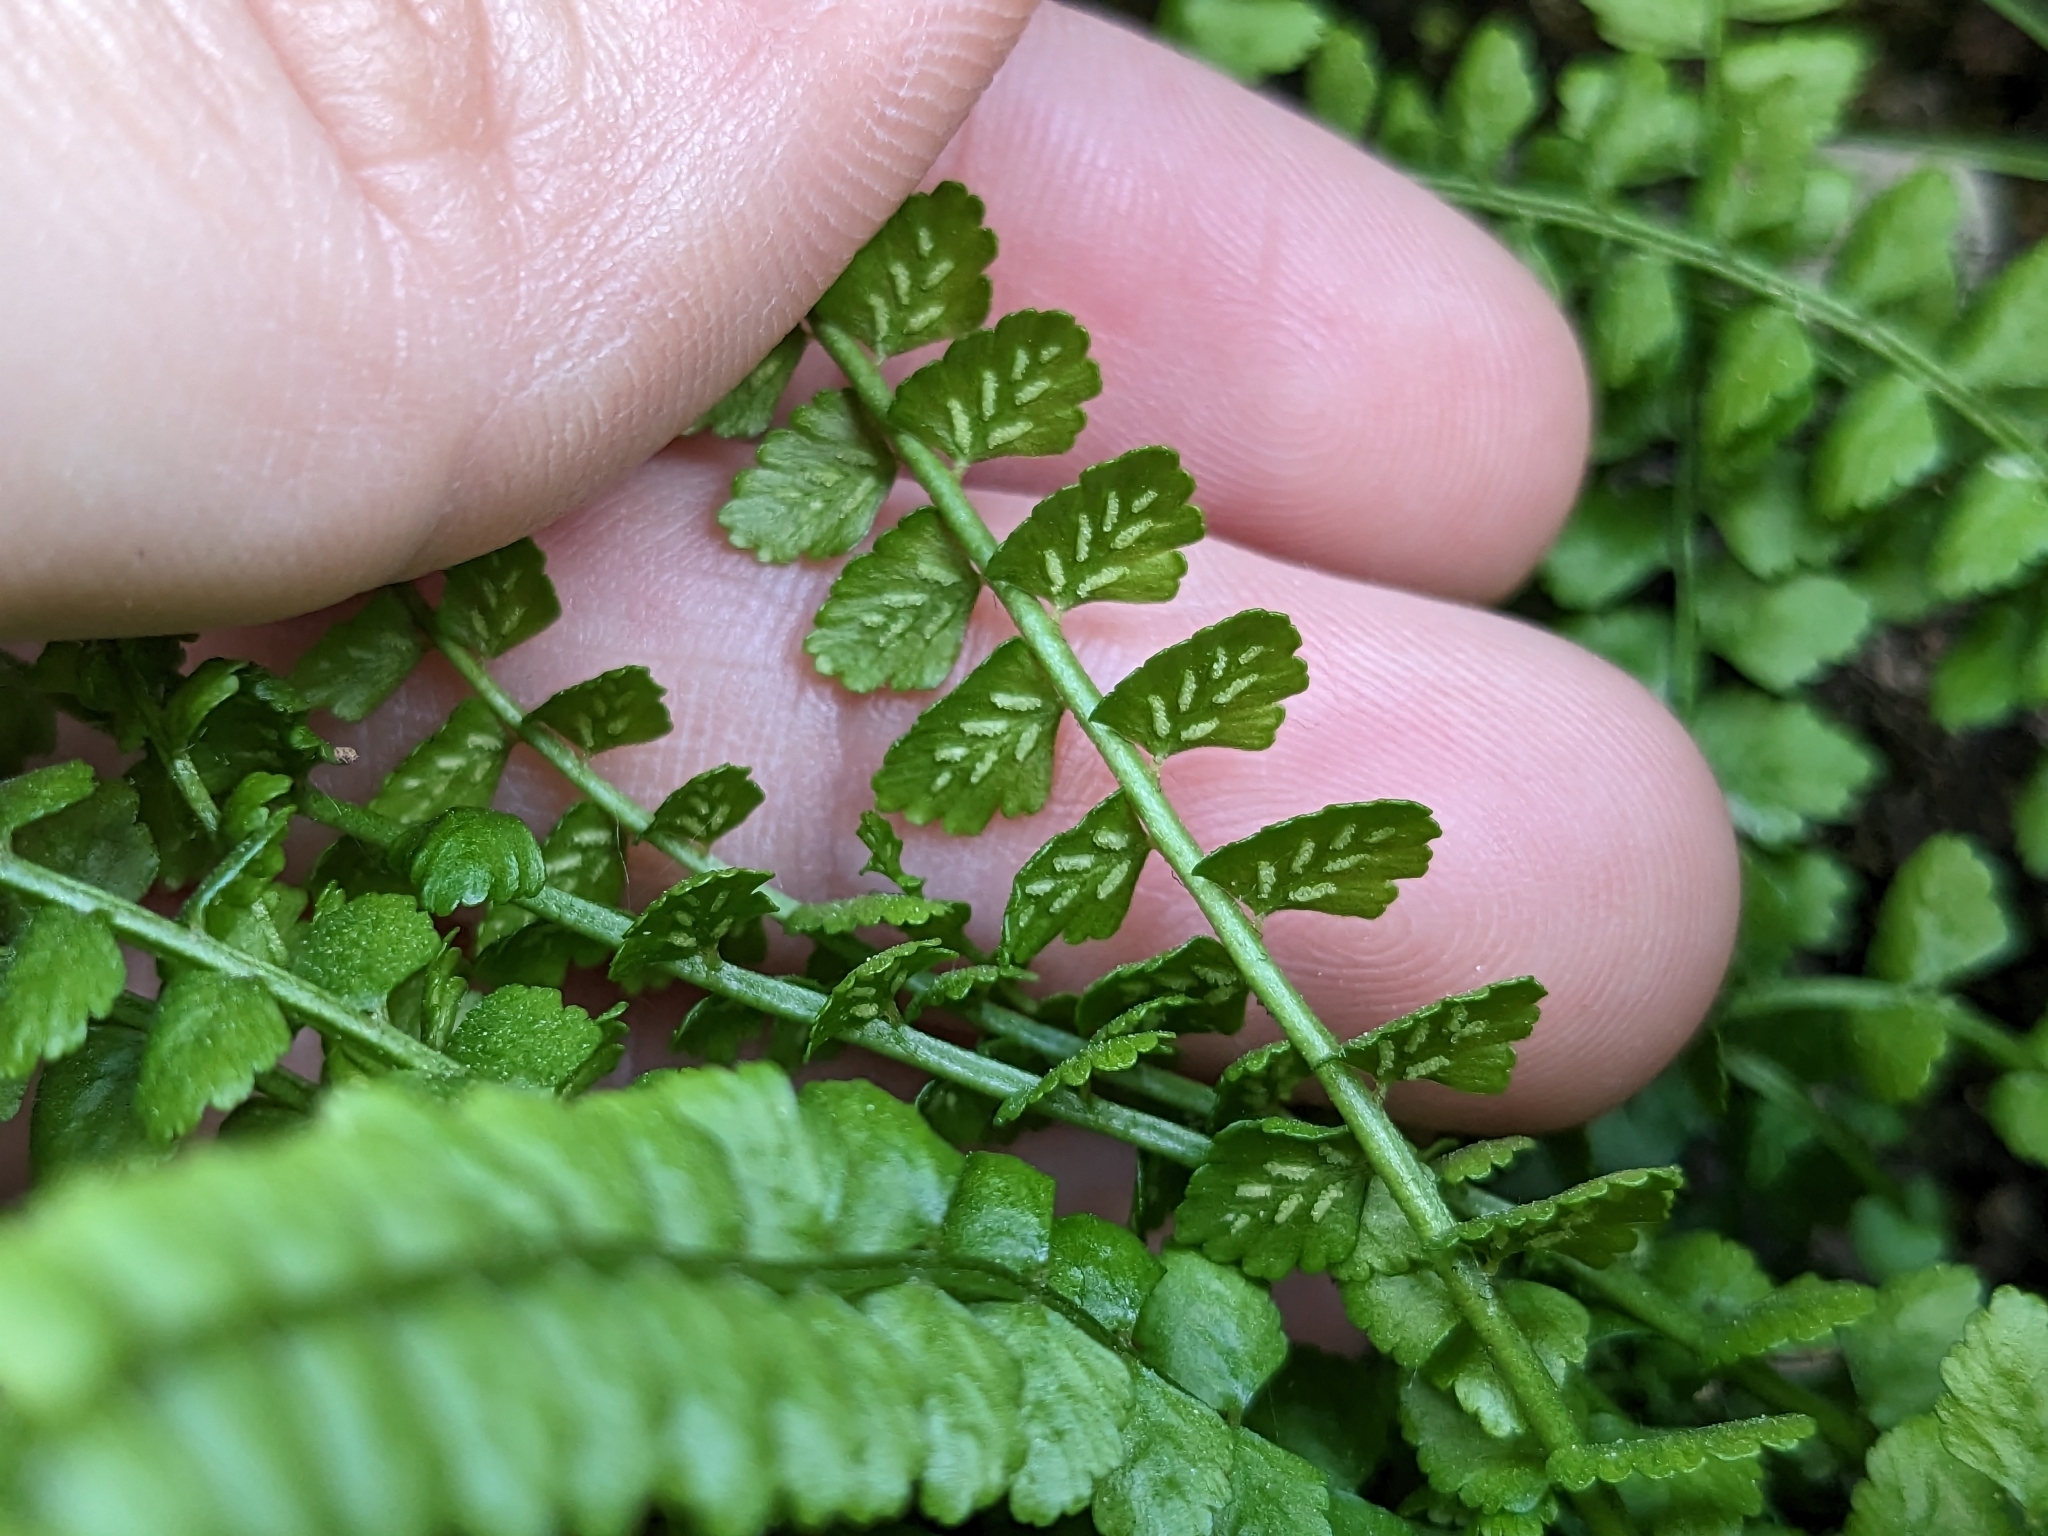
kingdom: Plantae
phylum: Tracheophyta
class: Polypodiopsida
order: Polypodiales
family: Aspleniaceae
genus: Asplenium
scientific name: Asplenium viride
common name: Green spleenwort
